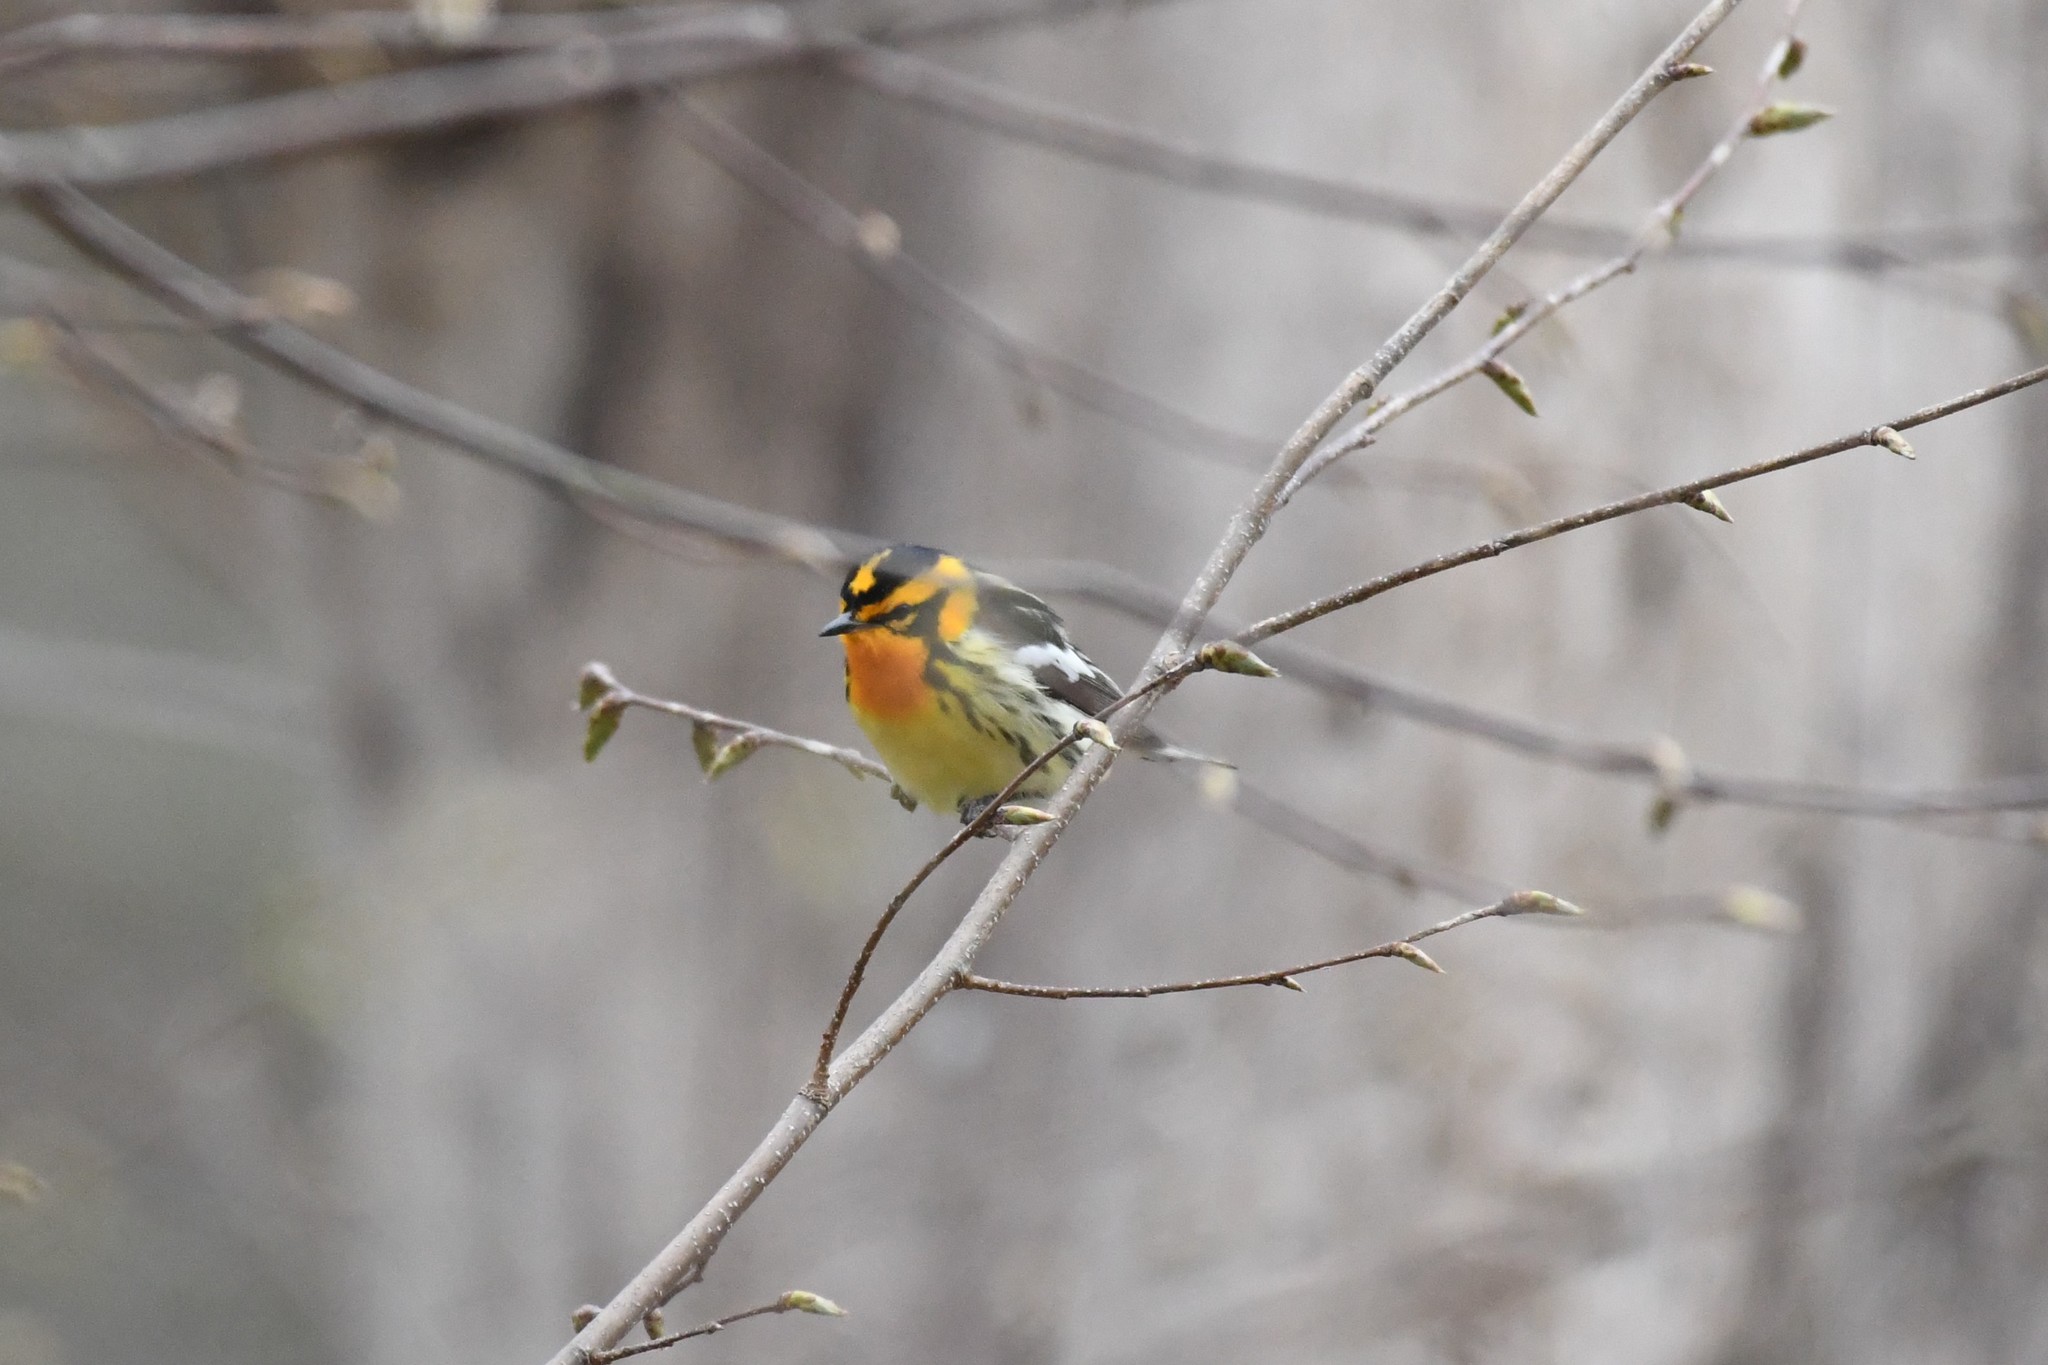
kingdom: Animalia
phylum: Chordata
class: Aves
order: Passeriformes
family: Parulidae
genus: Setophaga
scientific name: Setophaga fusca
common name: Blackburnian warbler
